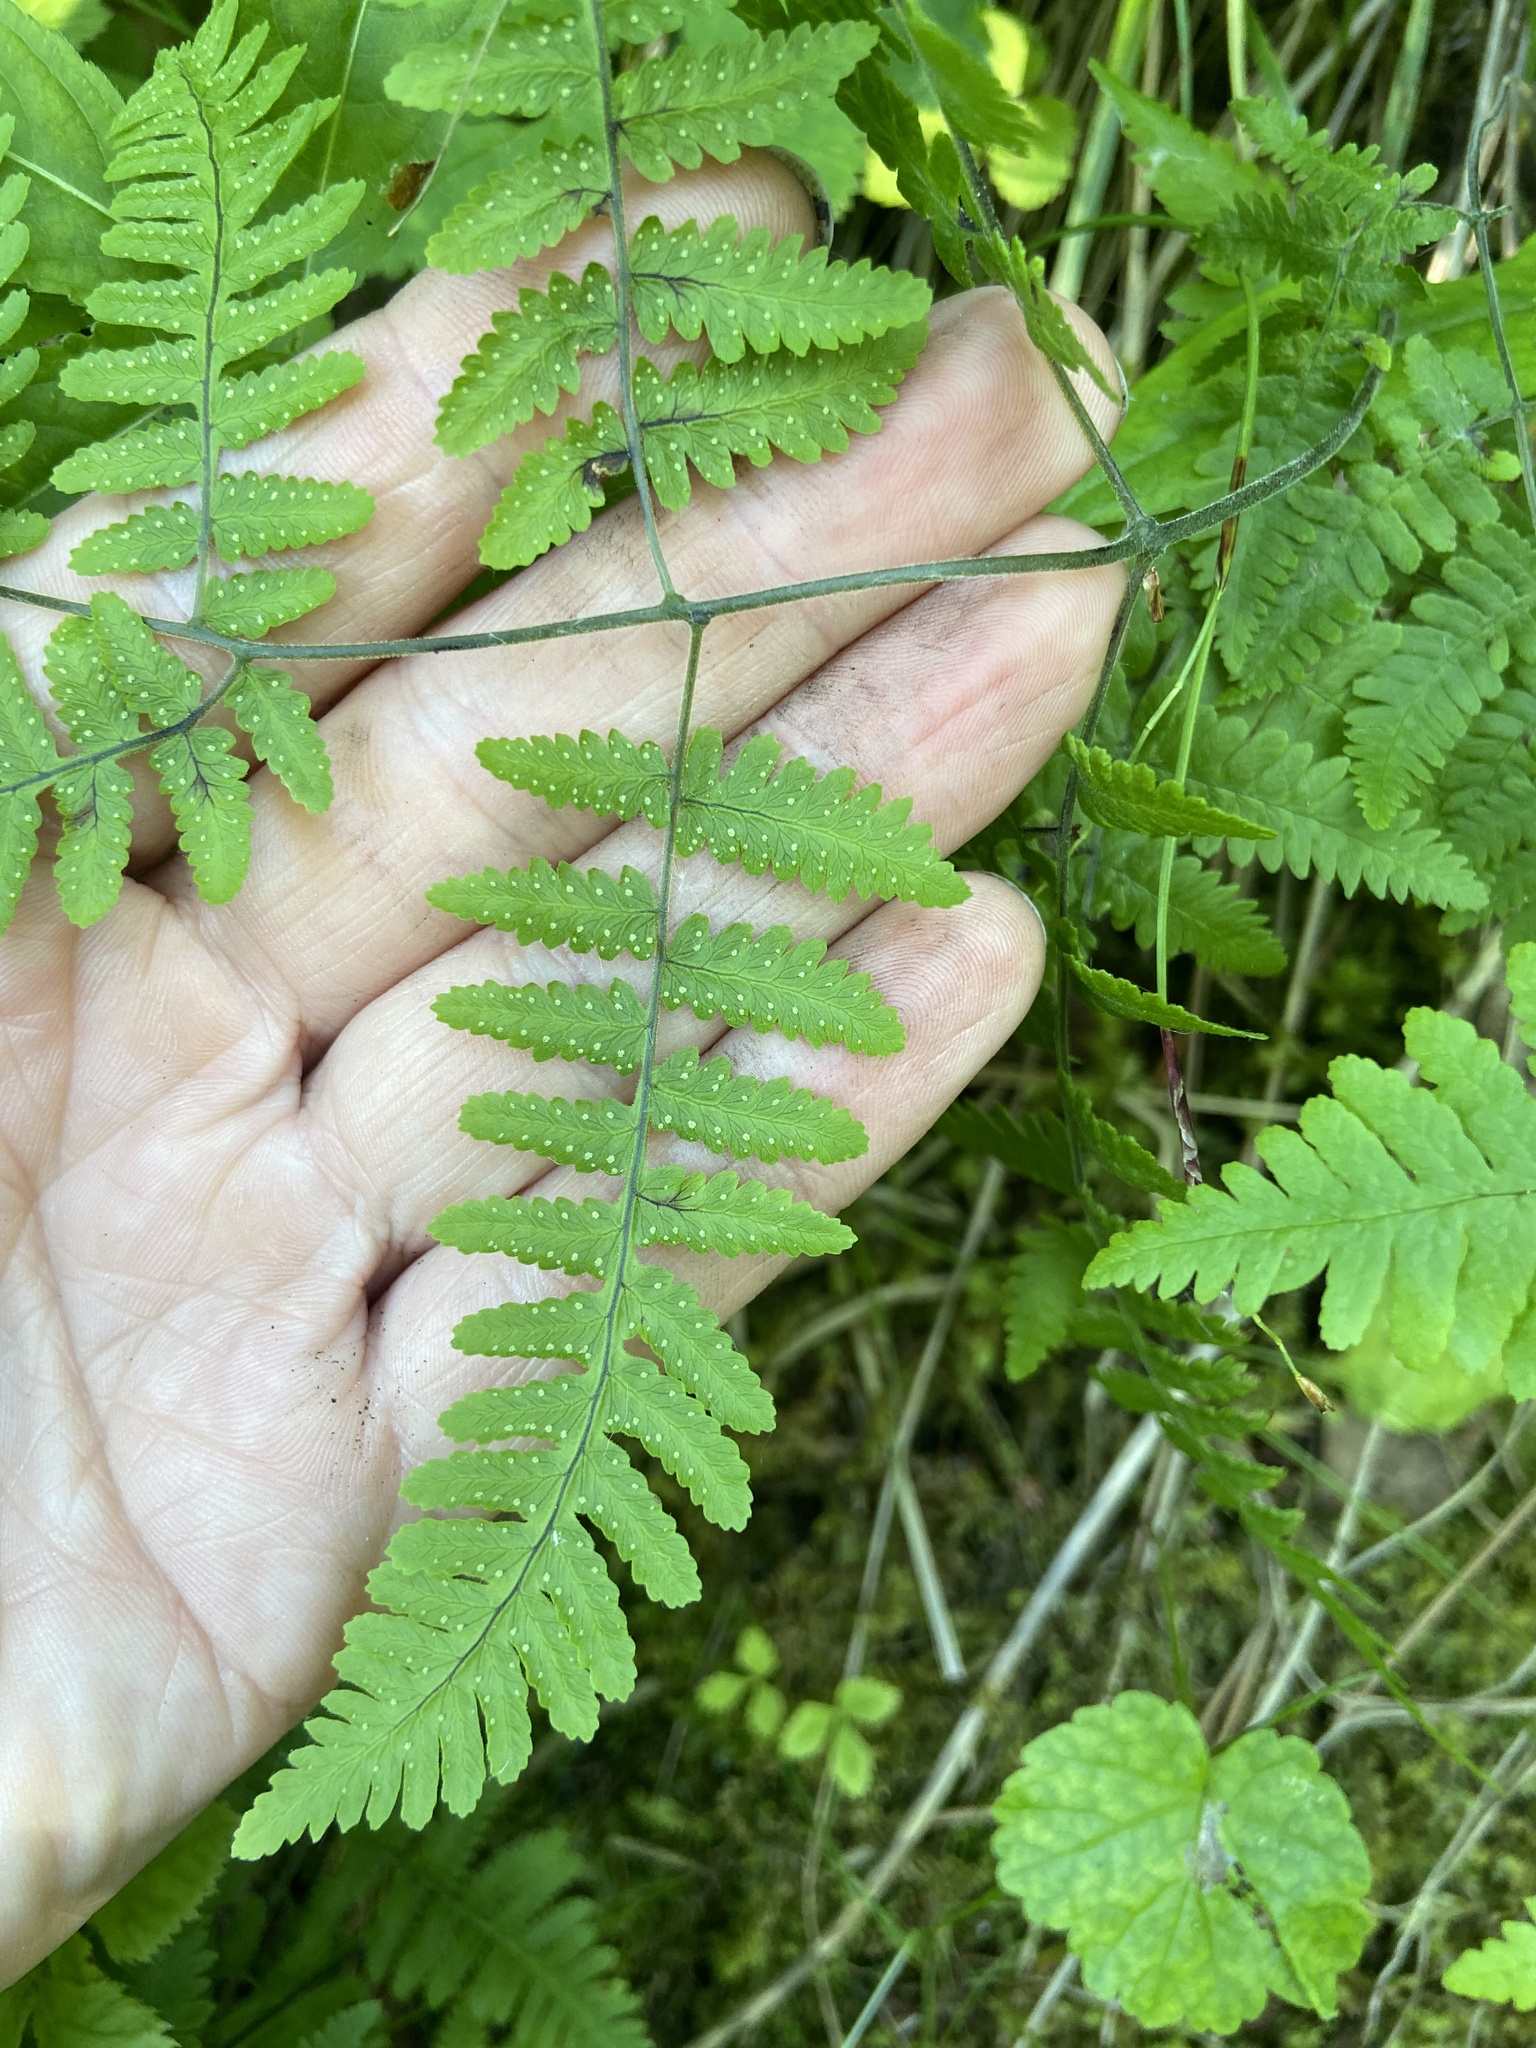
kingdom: Plantae
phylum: Tracheophyta
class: Polypodiopsida
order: Polypodiales
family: Cystopteridaceae
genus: Gymnocarpium
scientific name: Gymnocarpium robertianum
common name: Limestone fern
